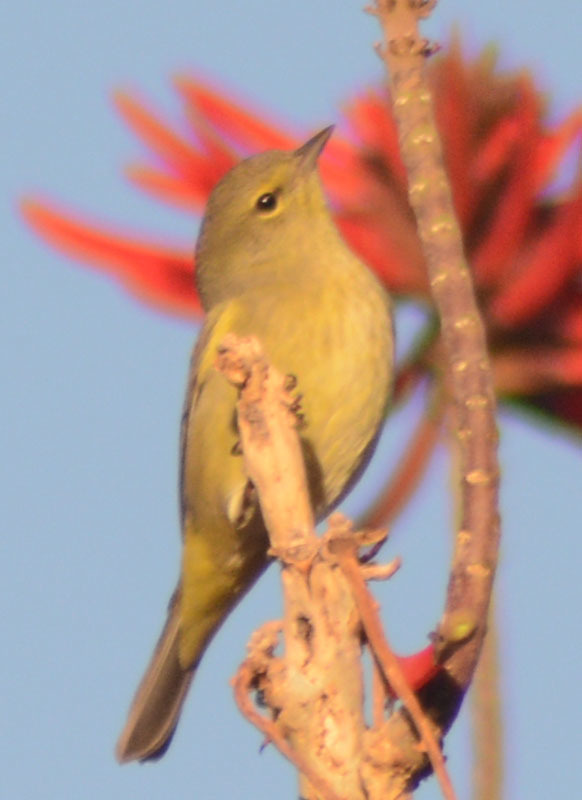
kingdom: Animalia
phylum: Chordata
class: Aves
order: Passeriformes
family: Parulidae
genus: Leiothlypis
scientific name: Leiothlypis celata
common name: Orange-crowned warbler
